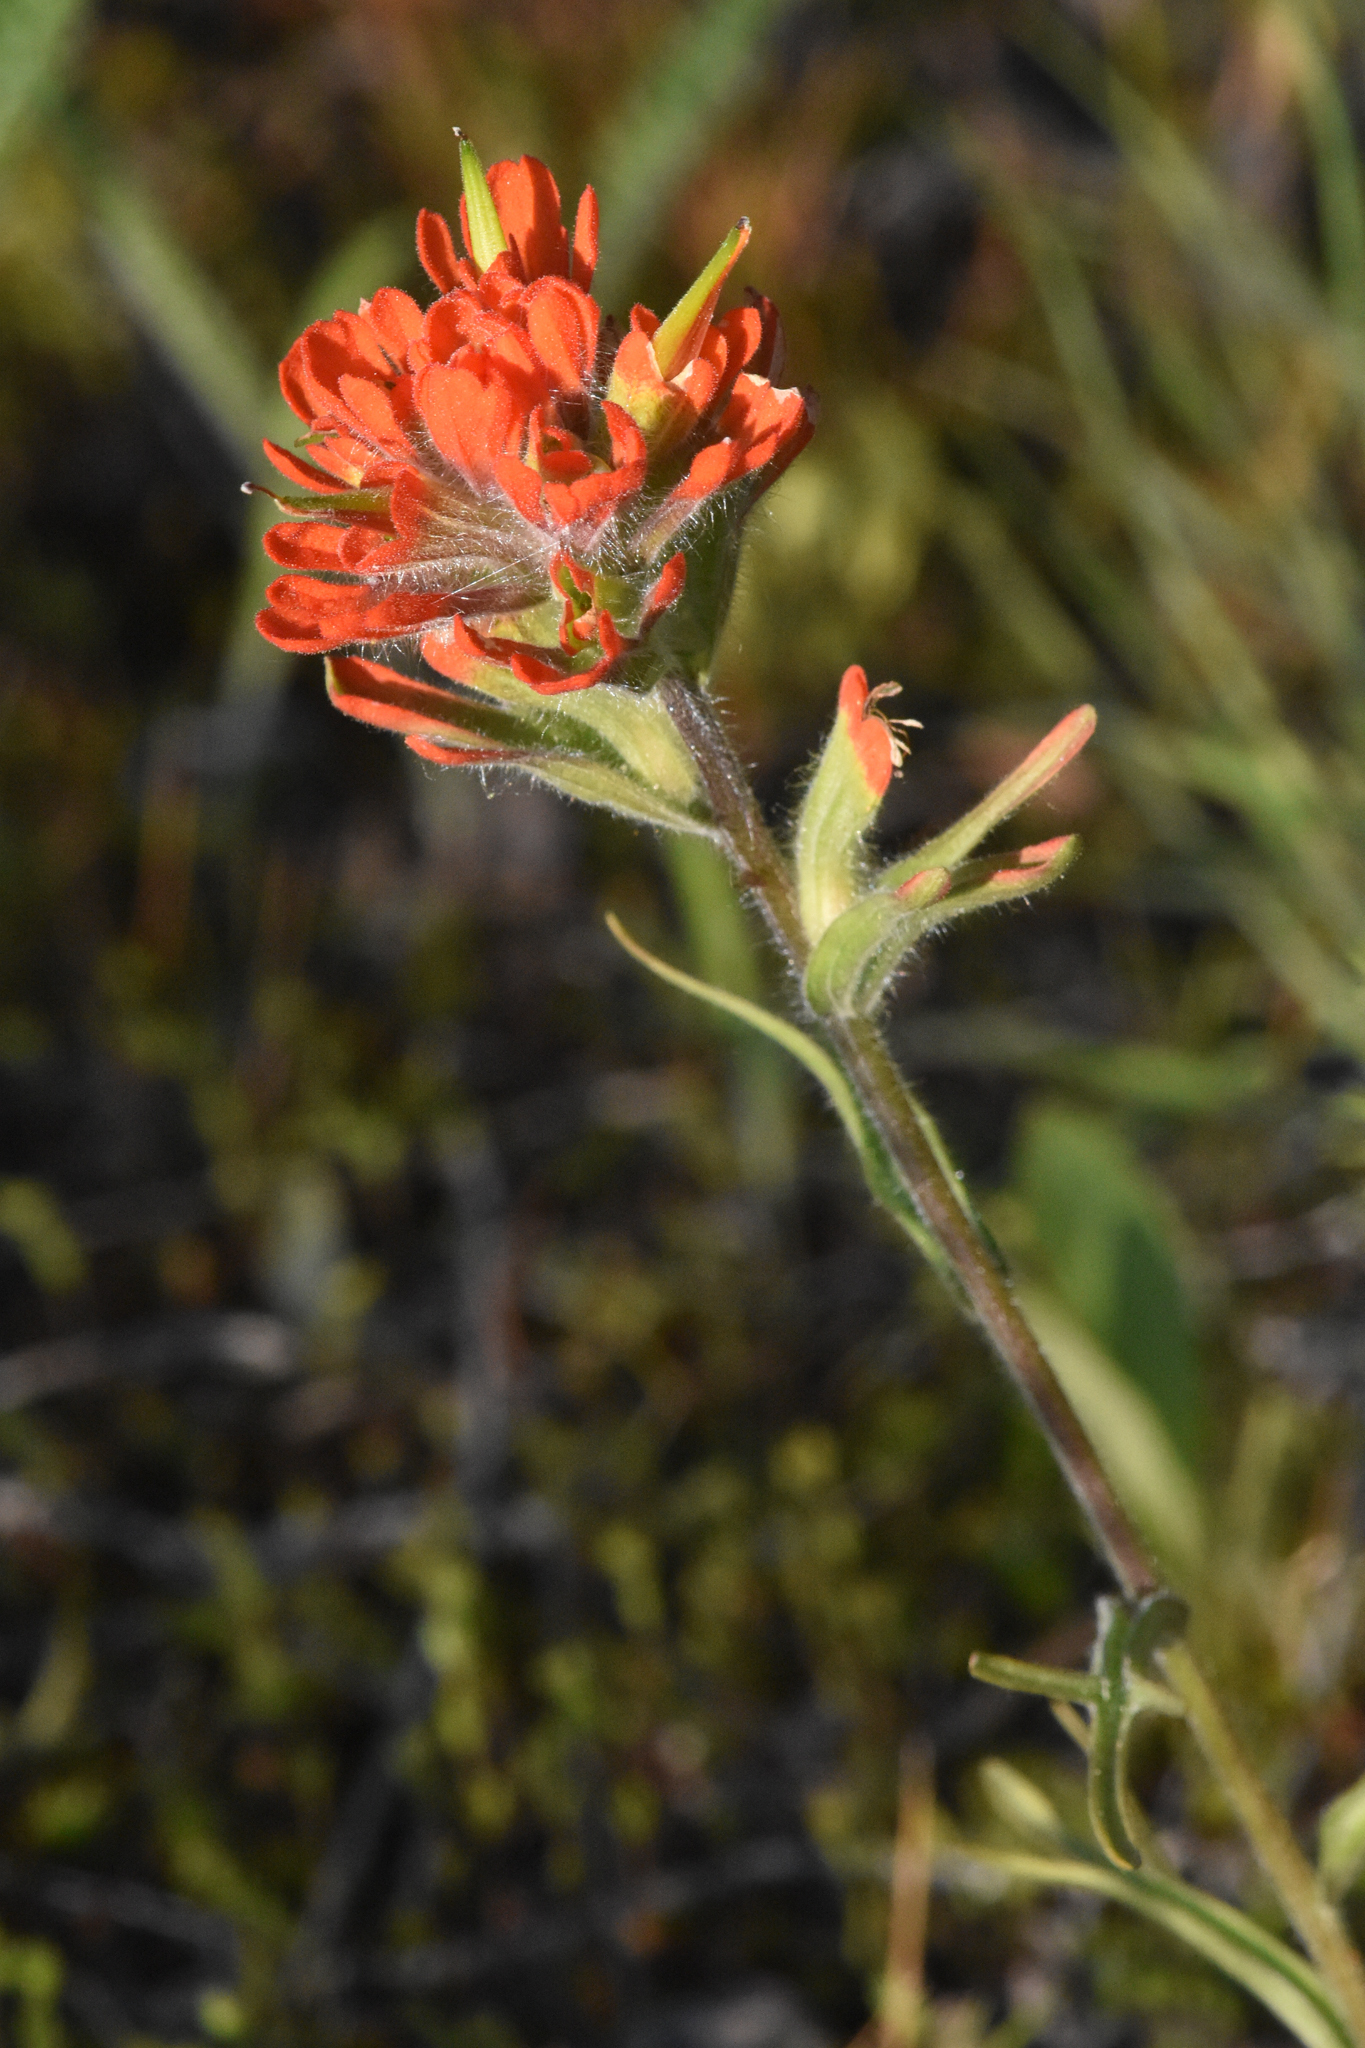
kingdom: Plantae
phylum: Tracheophyta
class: Magnoliopsida
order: Lamiales
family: Orobanchaceae
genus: Castilleja
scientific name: Castilleja hispida
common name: Bristly paintbrush
